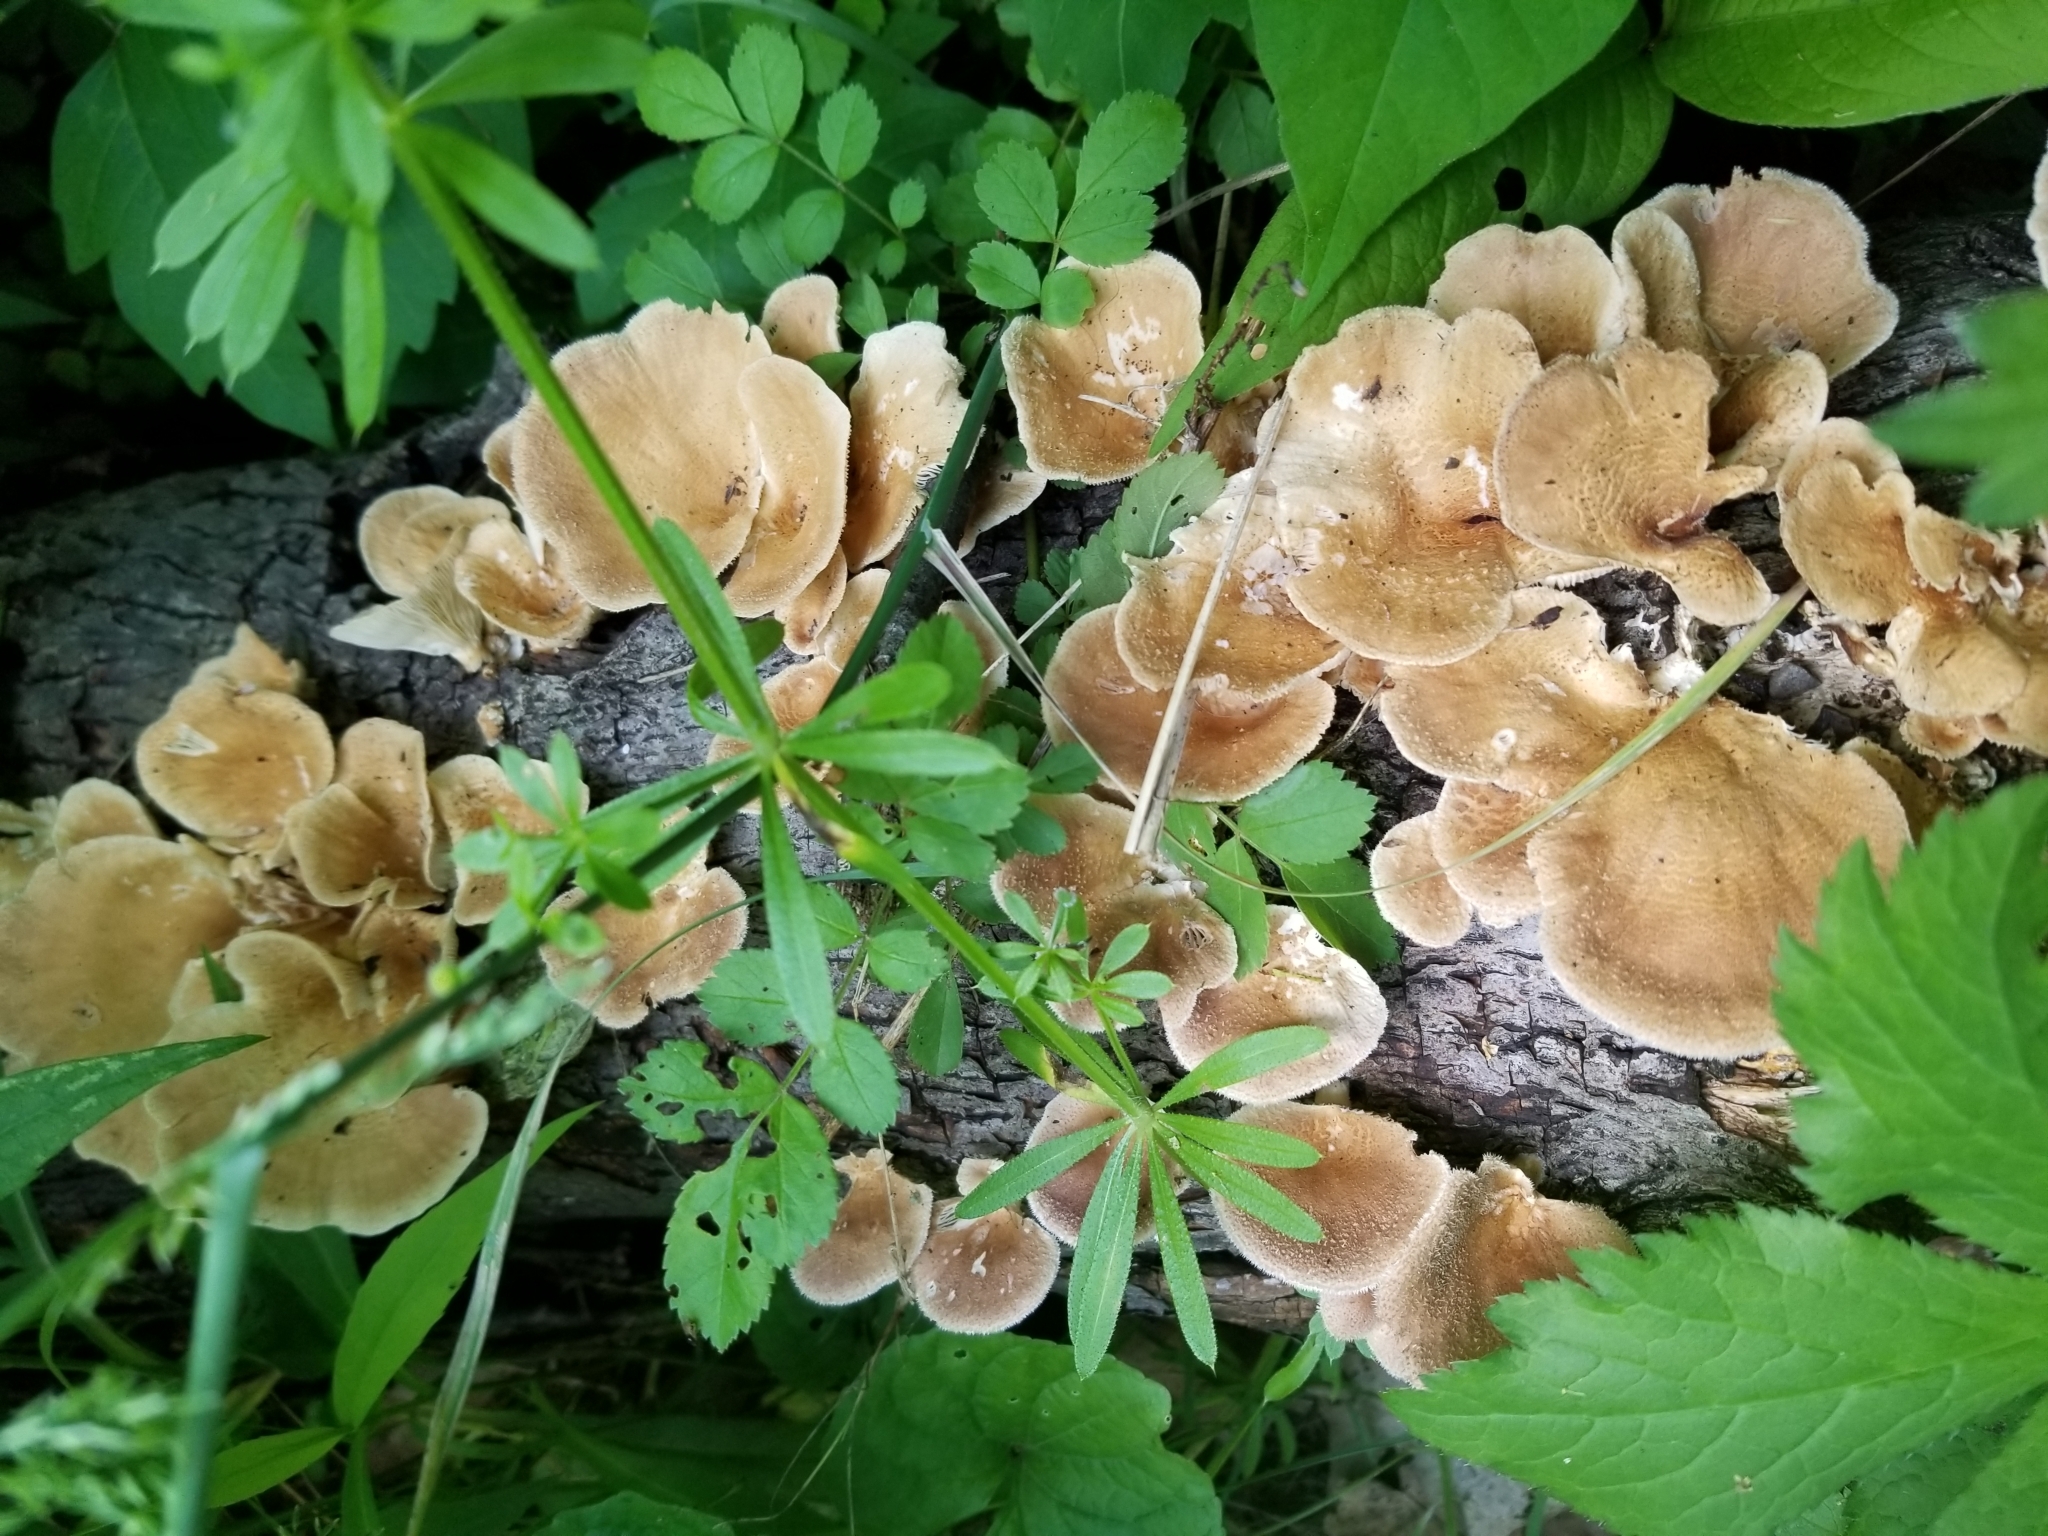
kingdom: Fungi
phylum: Basidiomycota
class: Agaricomycetes
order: Polyporales
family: Panaceae
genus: Panus
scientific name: Panus neostrigosus
